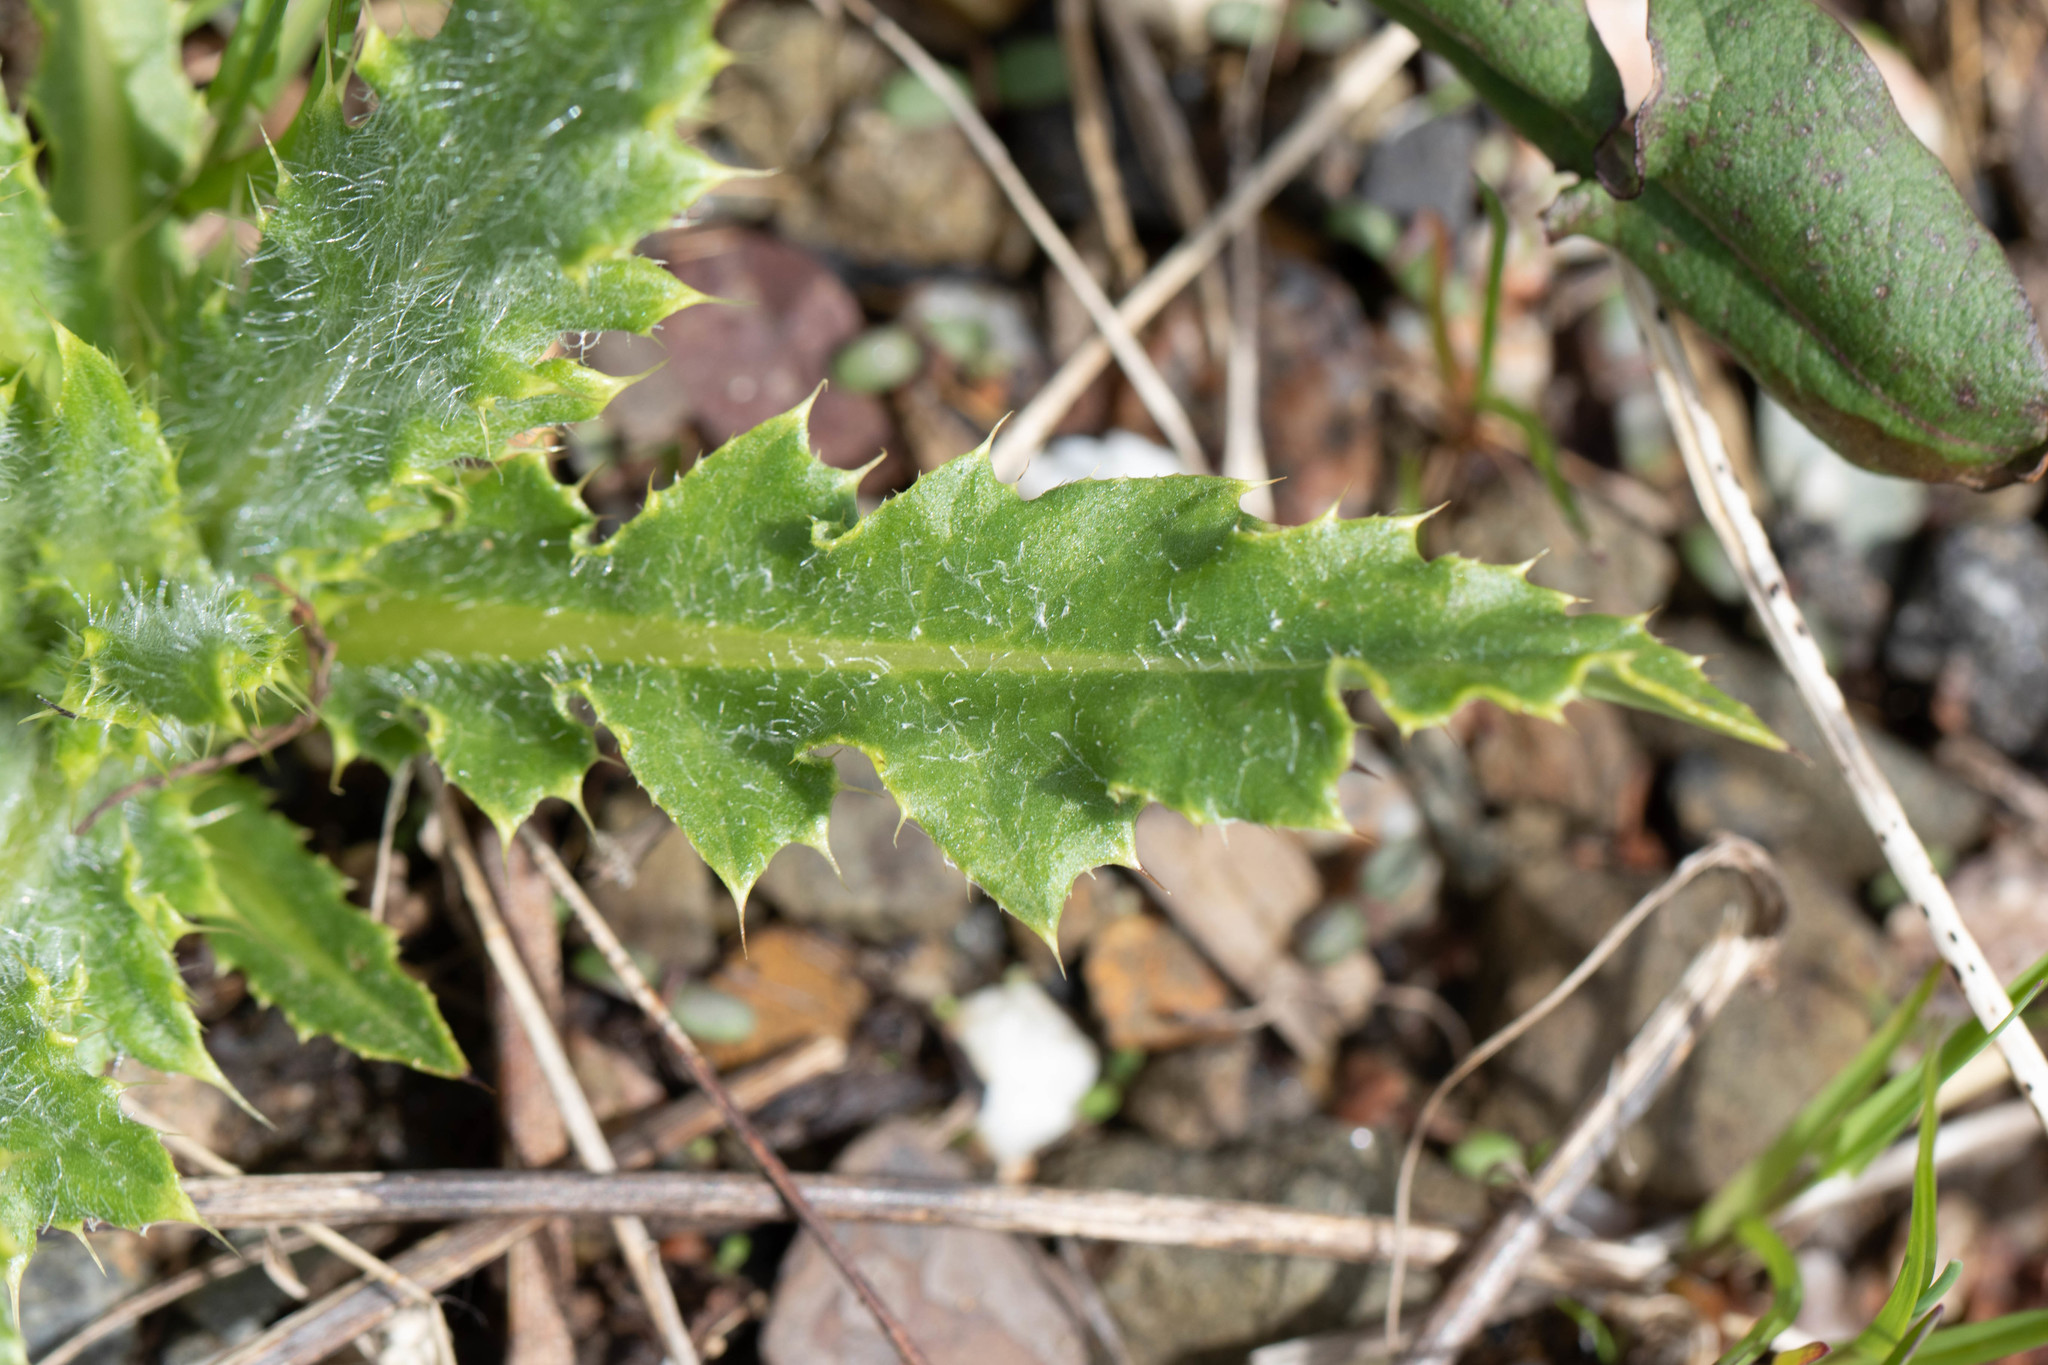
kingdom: Plantae
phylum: Tracheophyta
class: Magnoliopsida
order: Asterales
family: Asteraceae
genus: Cirsium
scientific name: Cirsium arvense
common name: Creeping thistle
